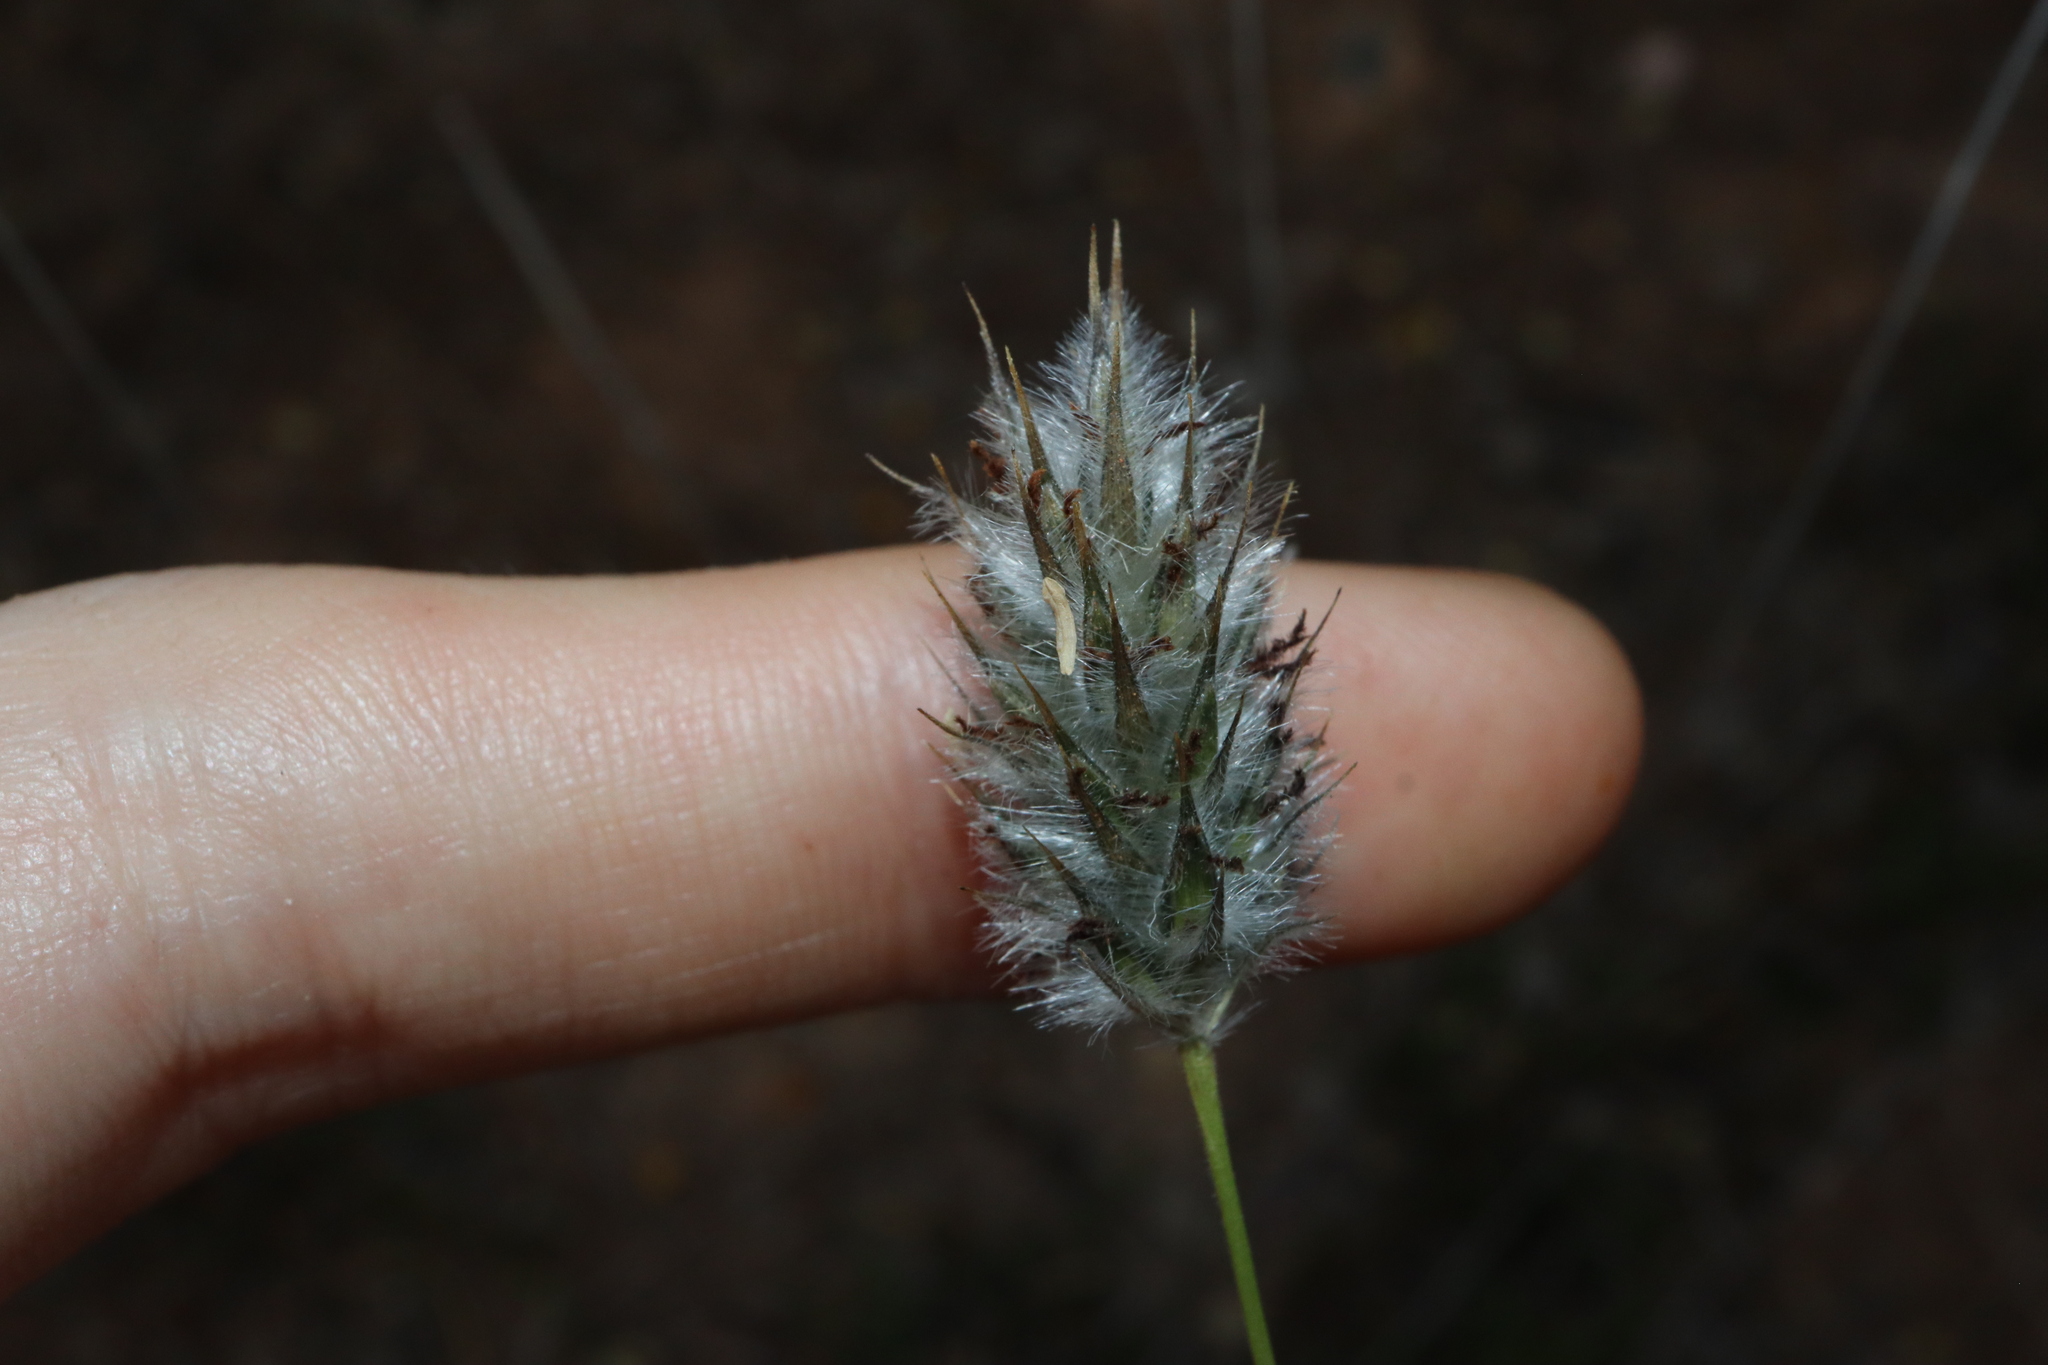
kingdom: Plantae
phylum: Tracheophyta
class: Liliopsida
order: Poales
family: Poaceae
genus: Neurachne
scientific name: Neurachne alopecuroidea
